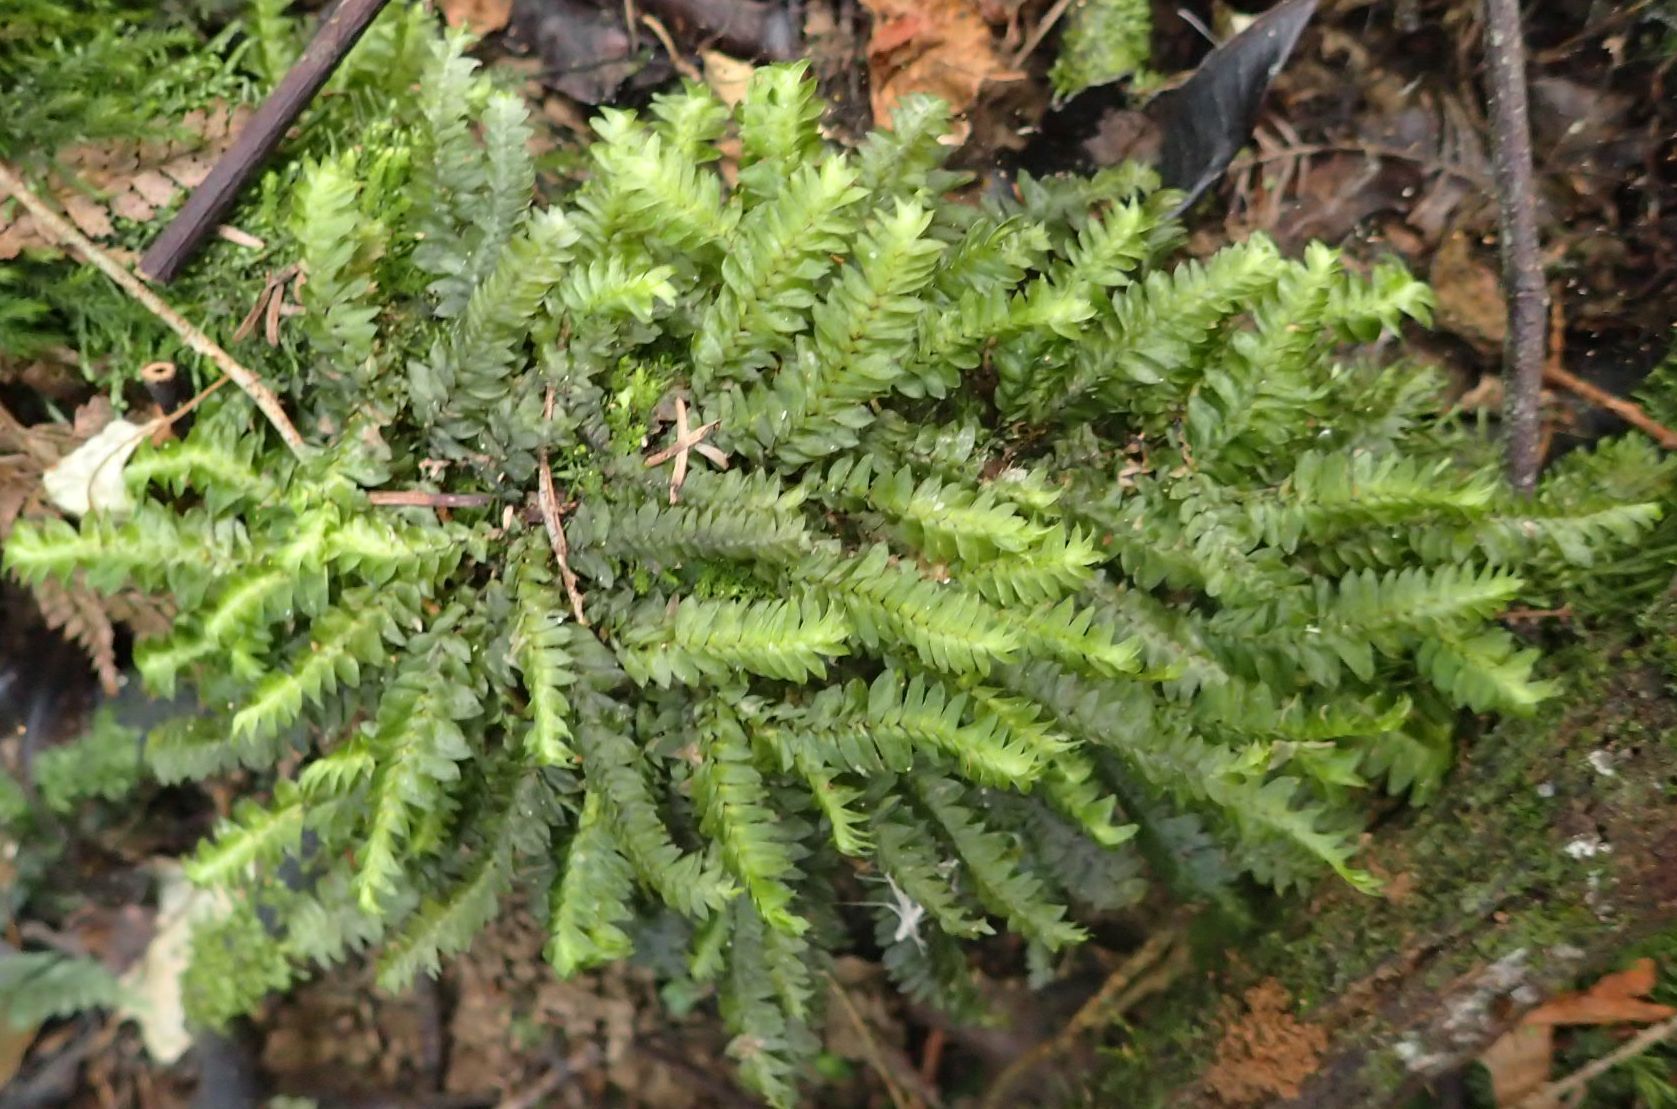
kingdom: Plantae
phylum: Bryophyta
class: Bryopsida
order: Hypopterygiales
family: Hypopterygiaceae
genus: Cyathophorum
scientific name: Cyathophorum bulbosum
